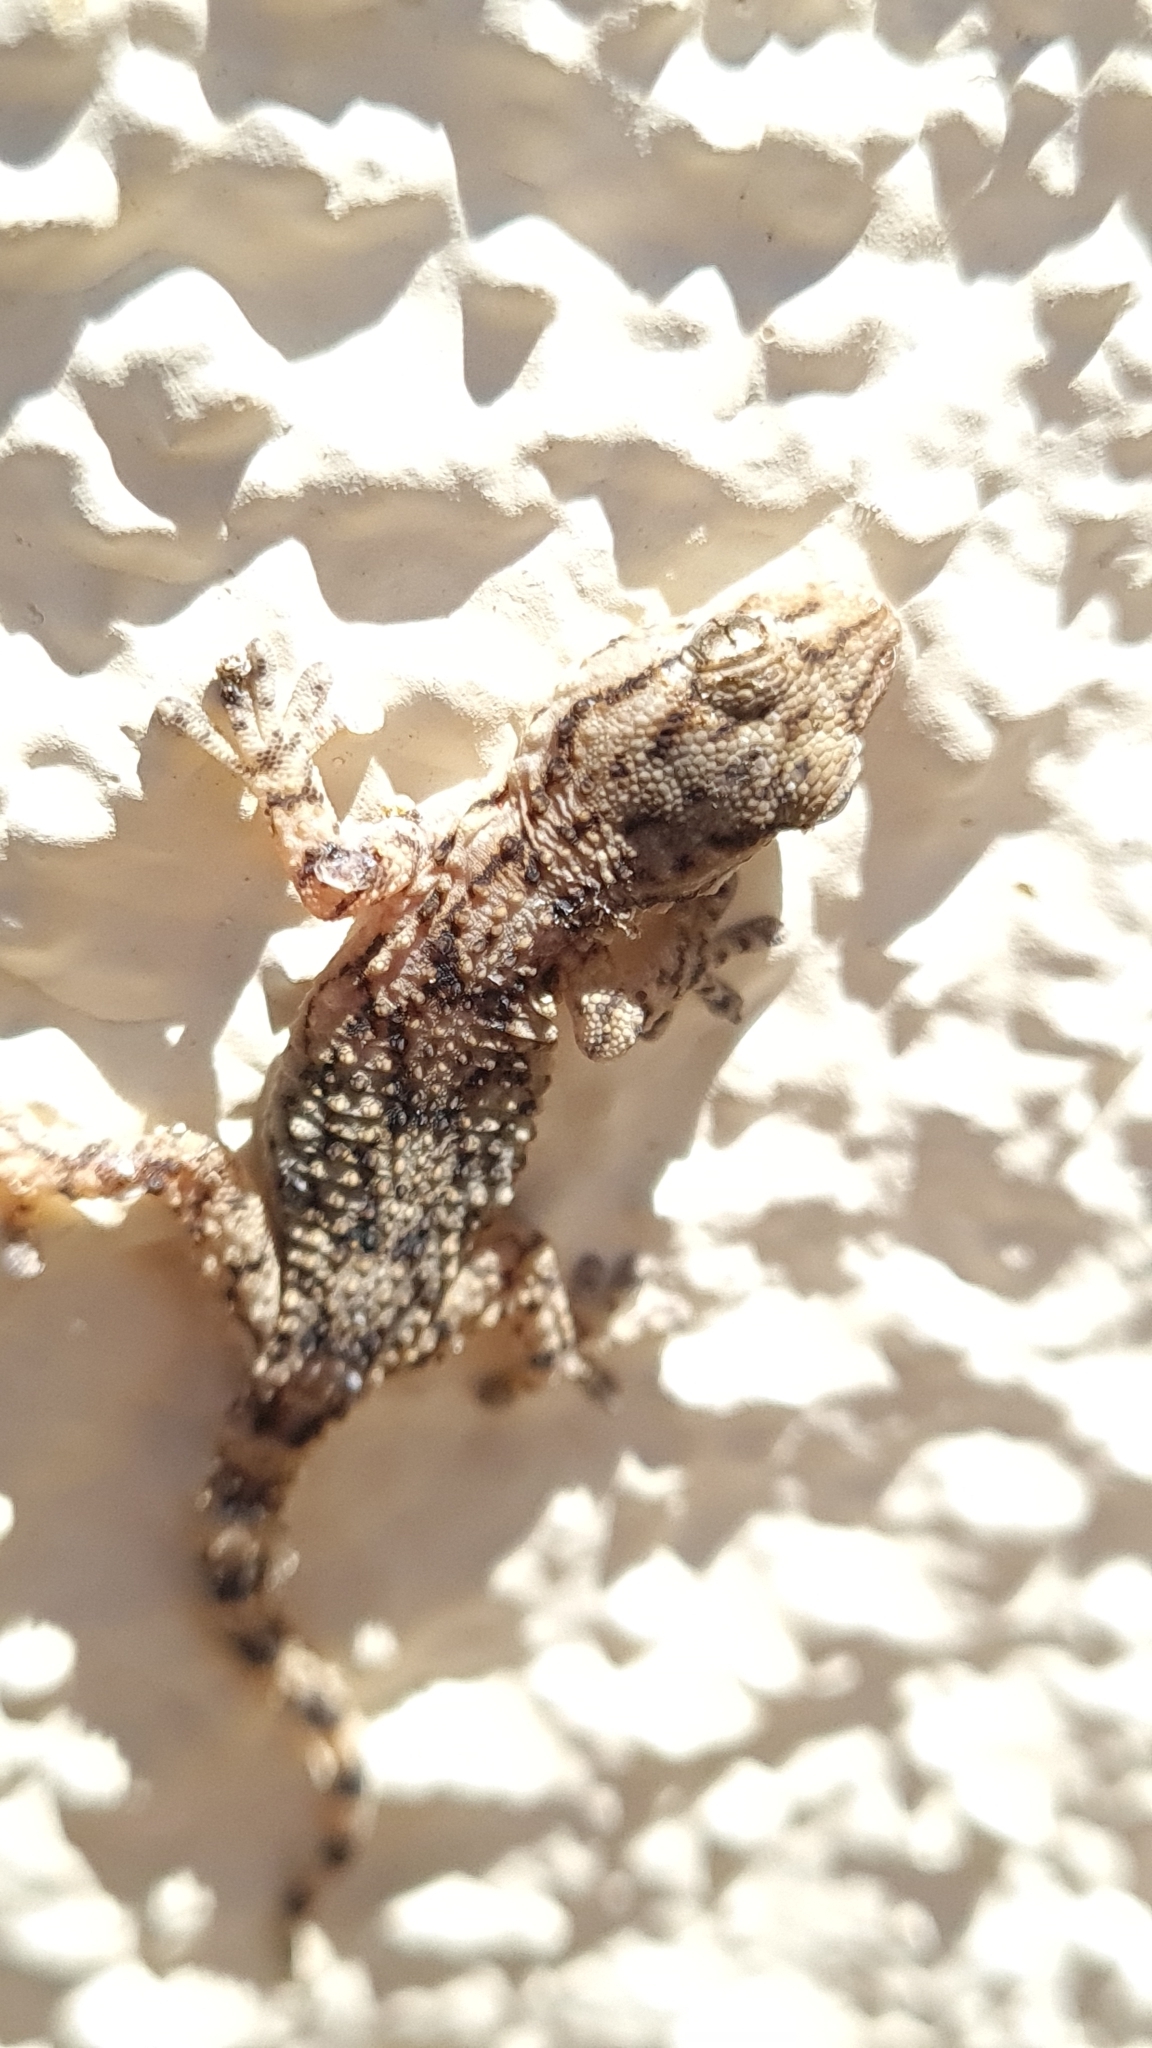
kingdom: Animalia
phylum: Chordata
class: Squamata
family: Phyllodactylidae
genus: Tarentola
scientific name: Tarentola mauritanica
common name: Moorish gecko
